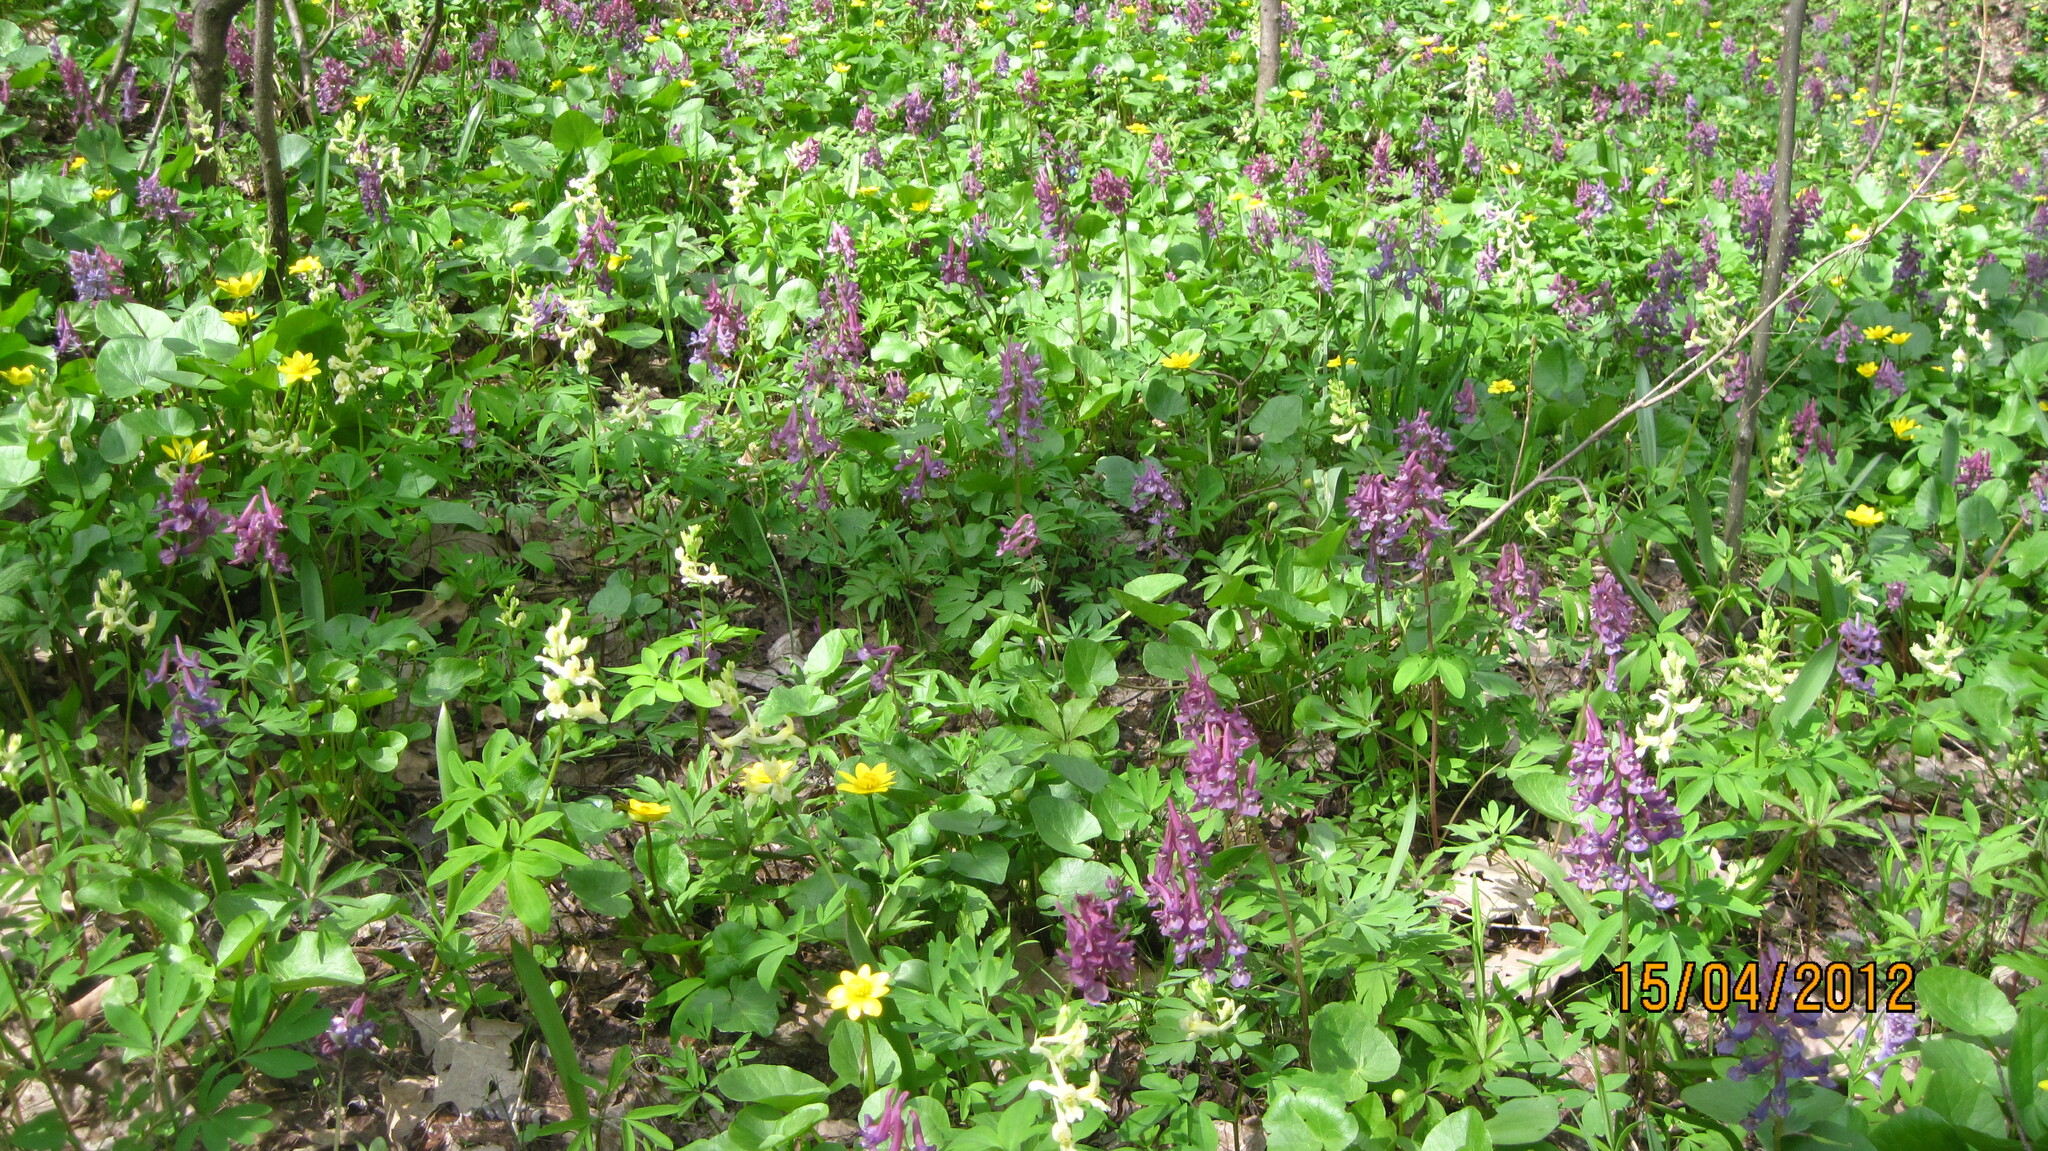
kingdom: Plantae
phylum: Tracheophyta
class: Magnoliopsida
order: Ranunculales
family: Papaveraceae
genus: Corydalis
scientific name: Corydalis cava
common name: Hollowroot
